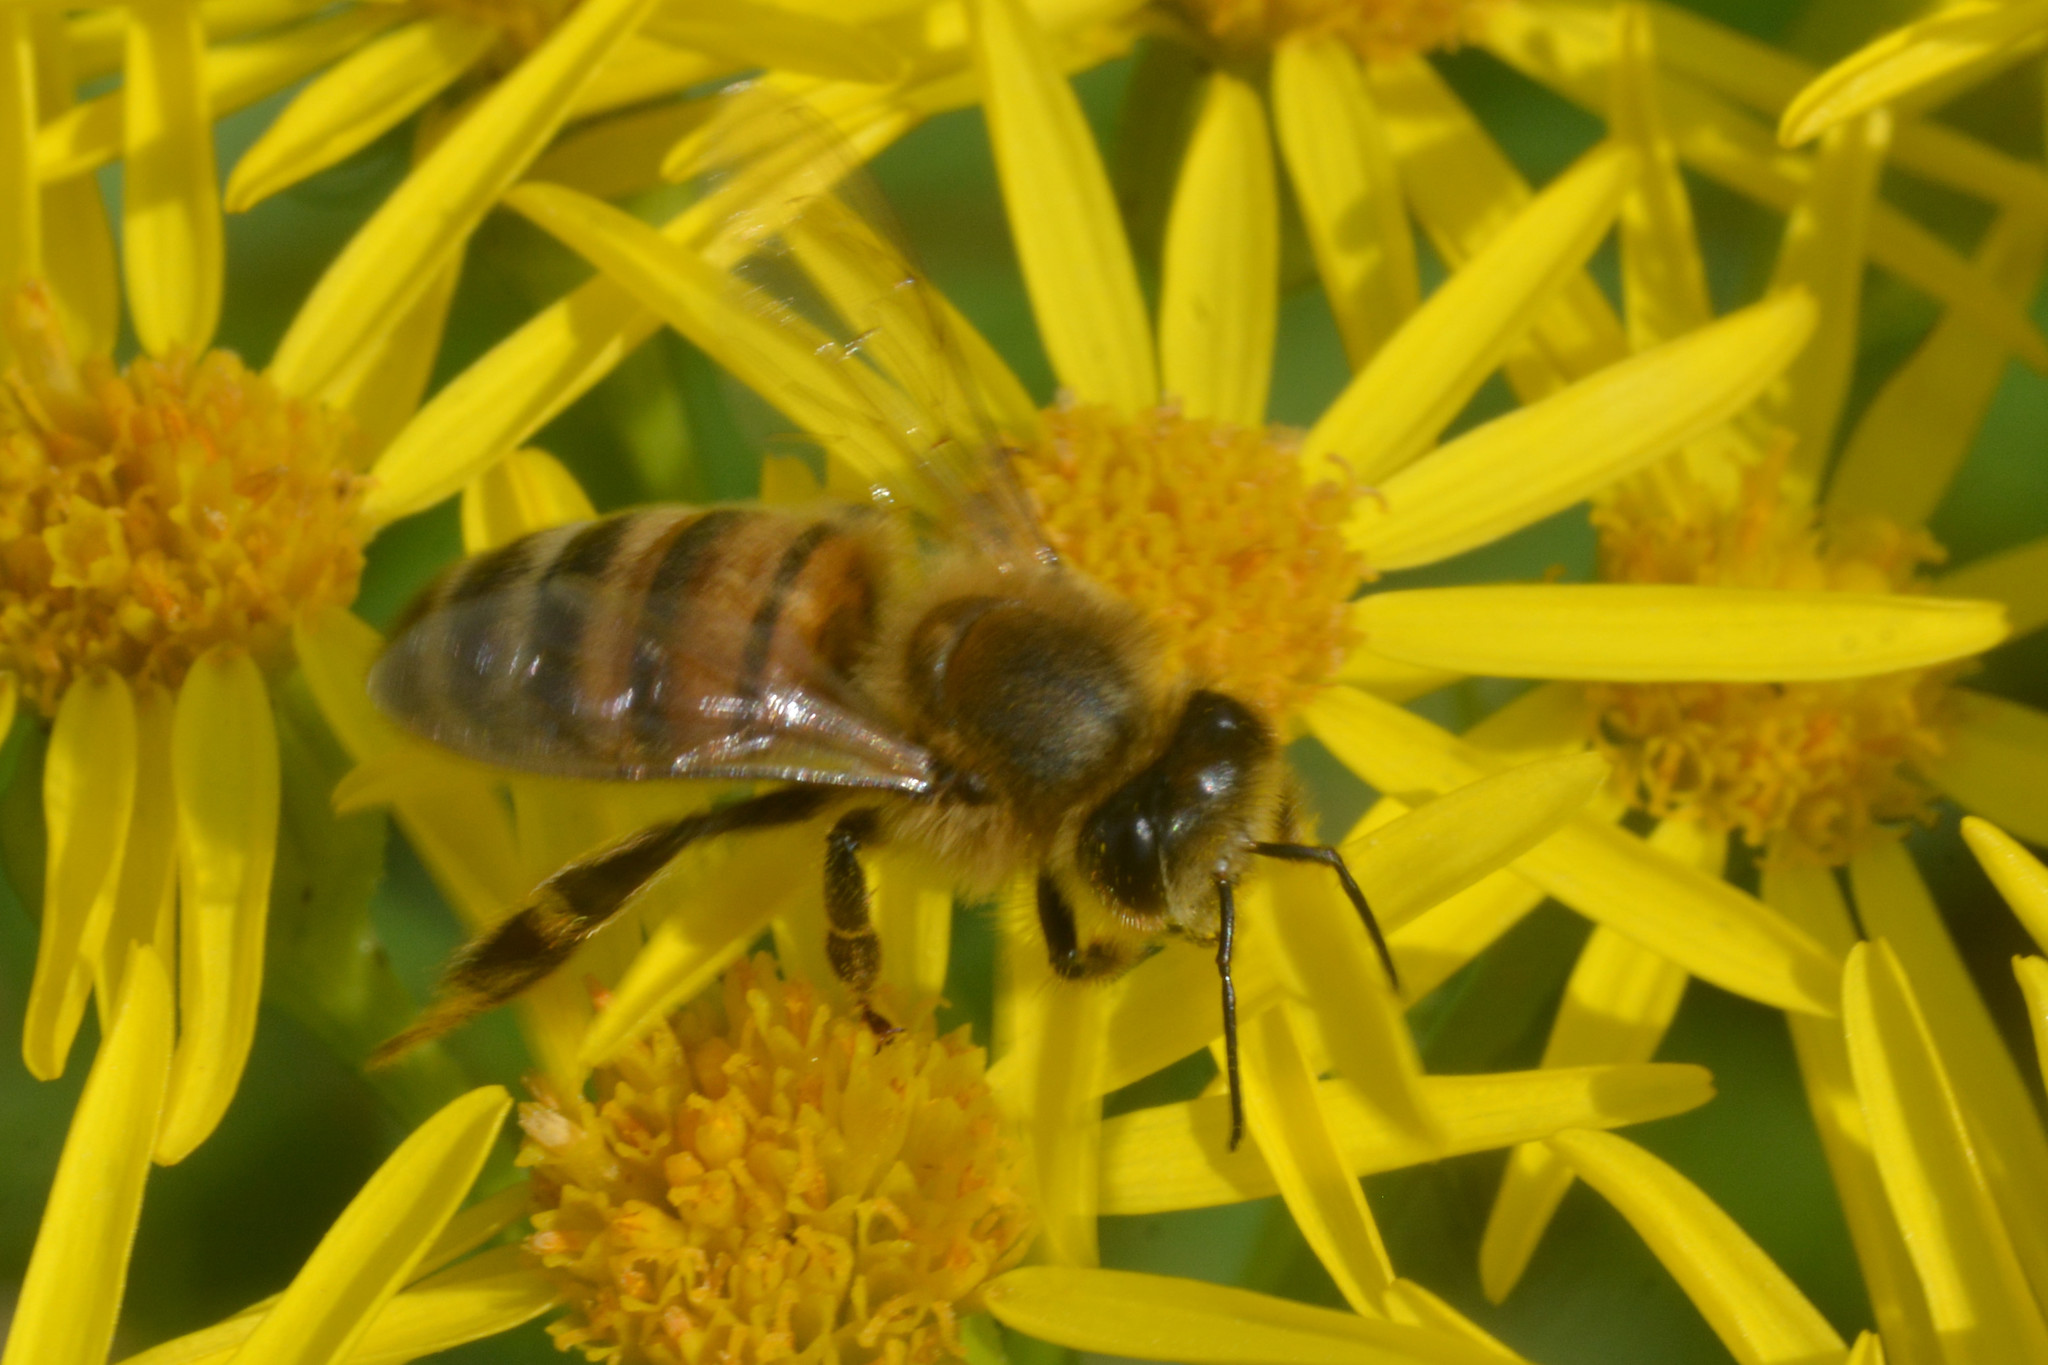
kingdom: Animalia
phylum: Arthropoda
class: Insecta
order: Hymenoptera
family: Apidae
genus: Apis
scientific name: Apis mellifera
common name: Honey bee
